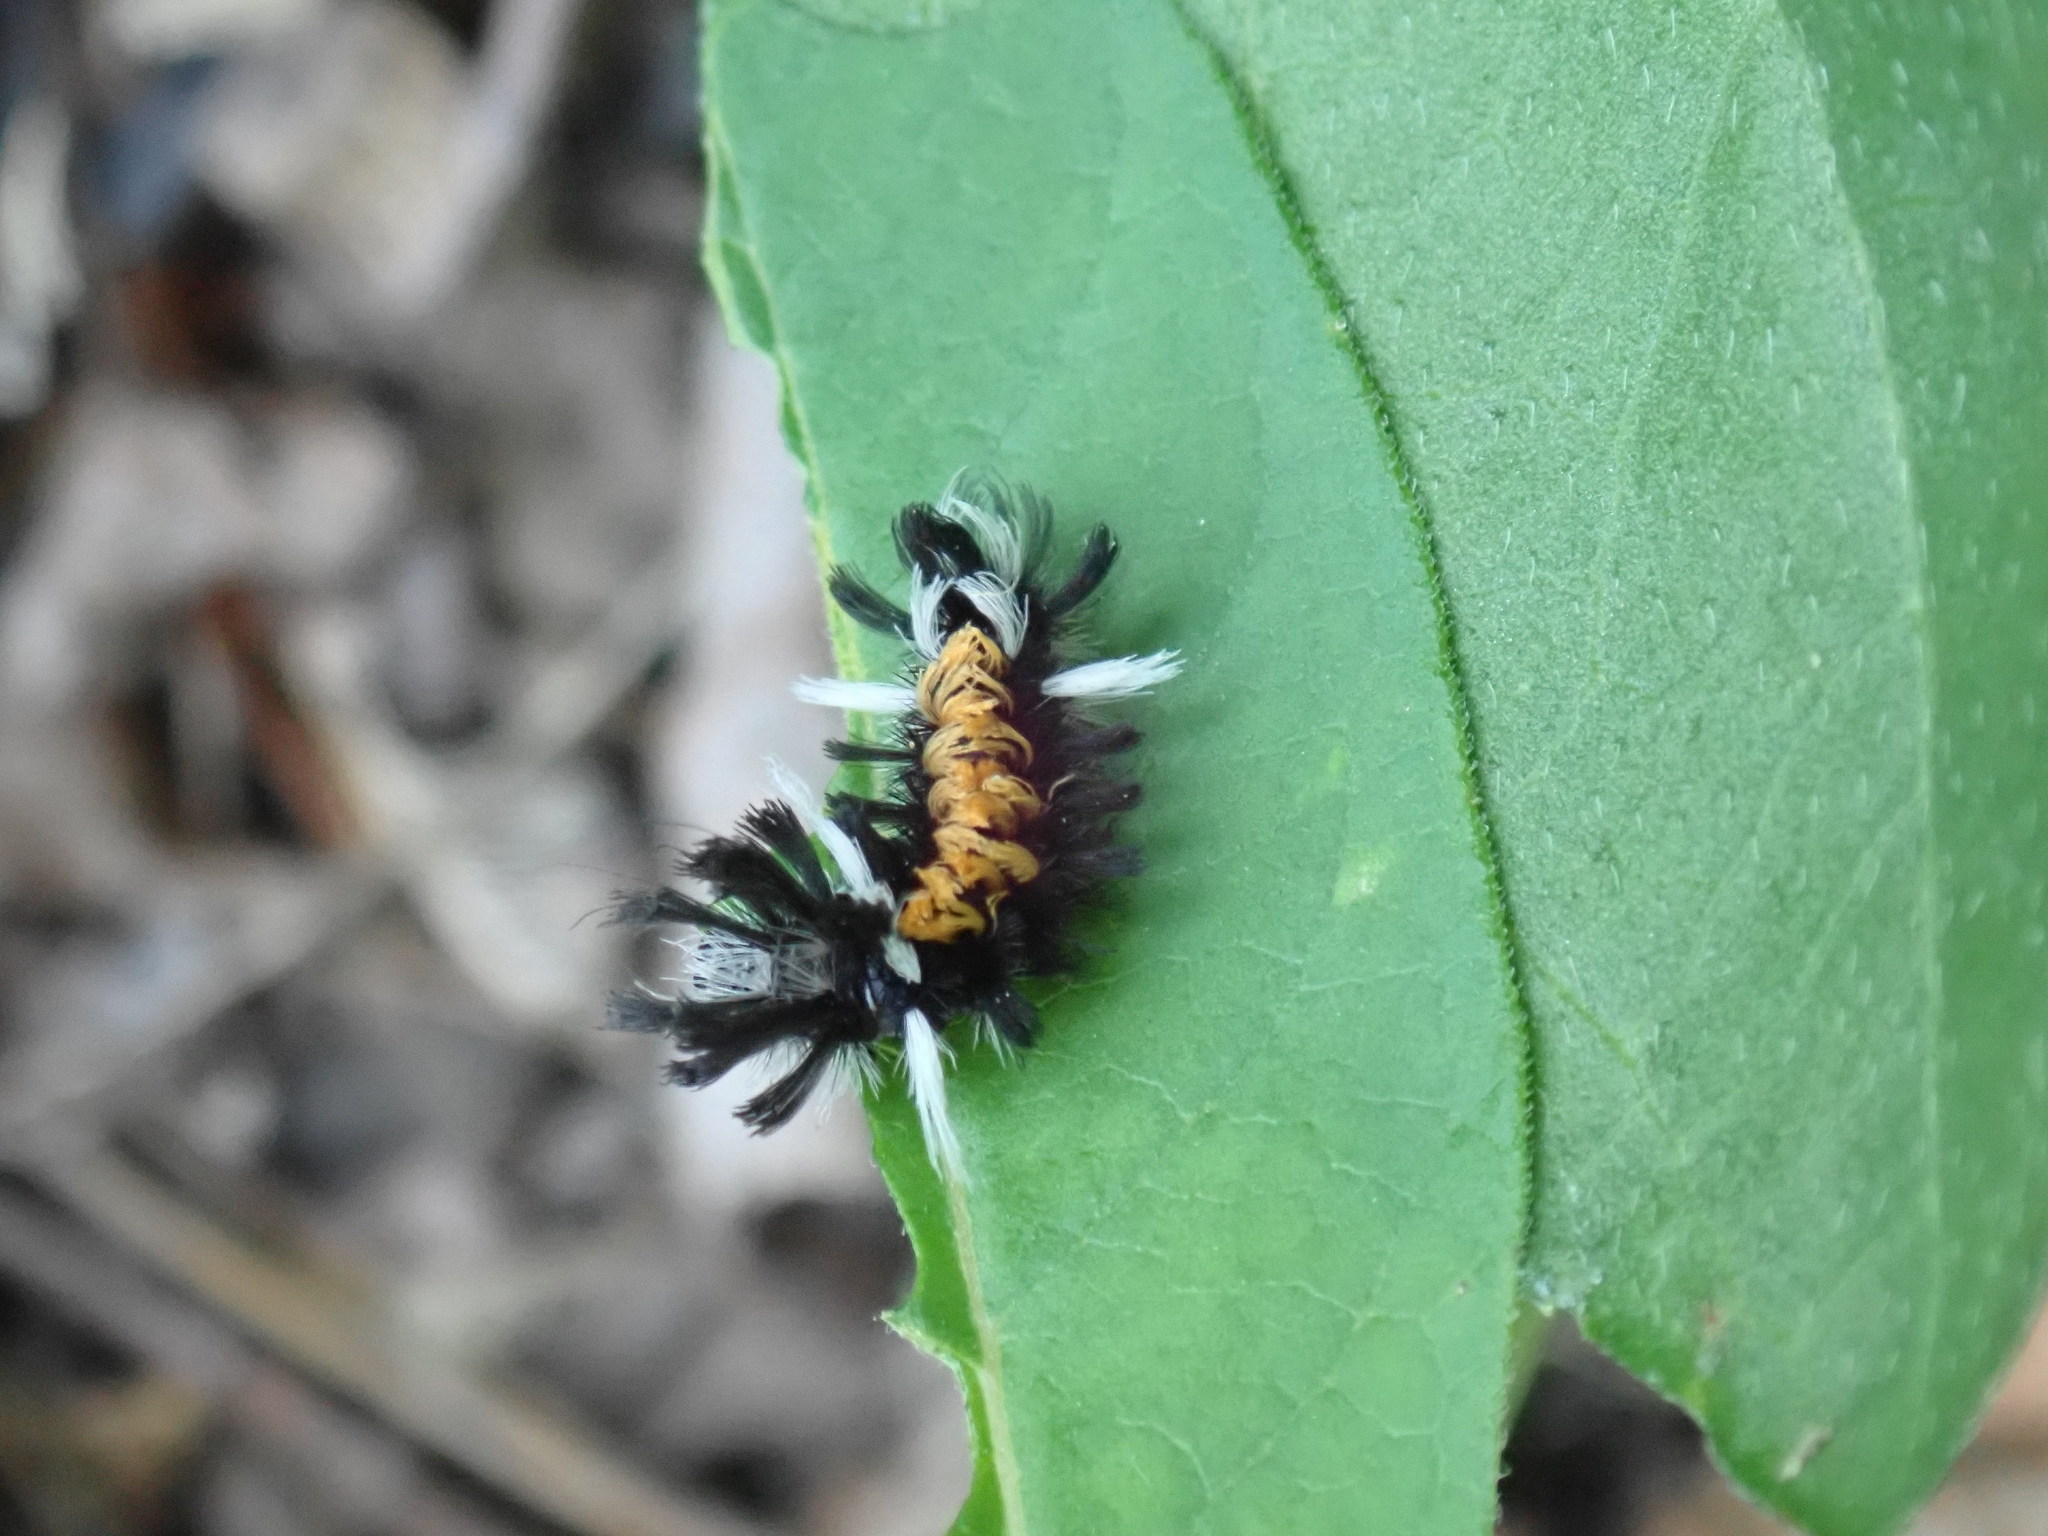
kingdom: Animalia
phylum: Arthropoda
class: Insecta
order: Lepidoptera
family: Erebidae
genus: Euchaetes
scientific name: Euchaetes egle
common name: Milkweed tussock moth
